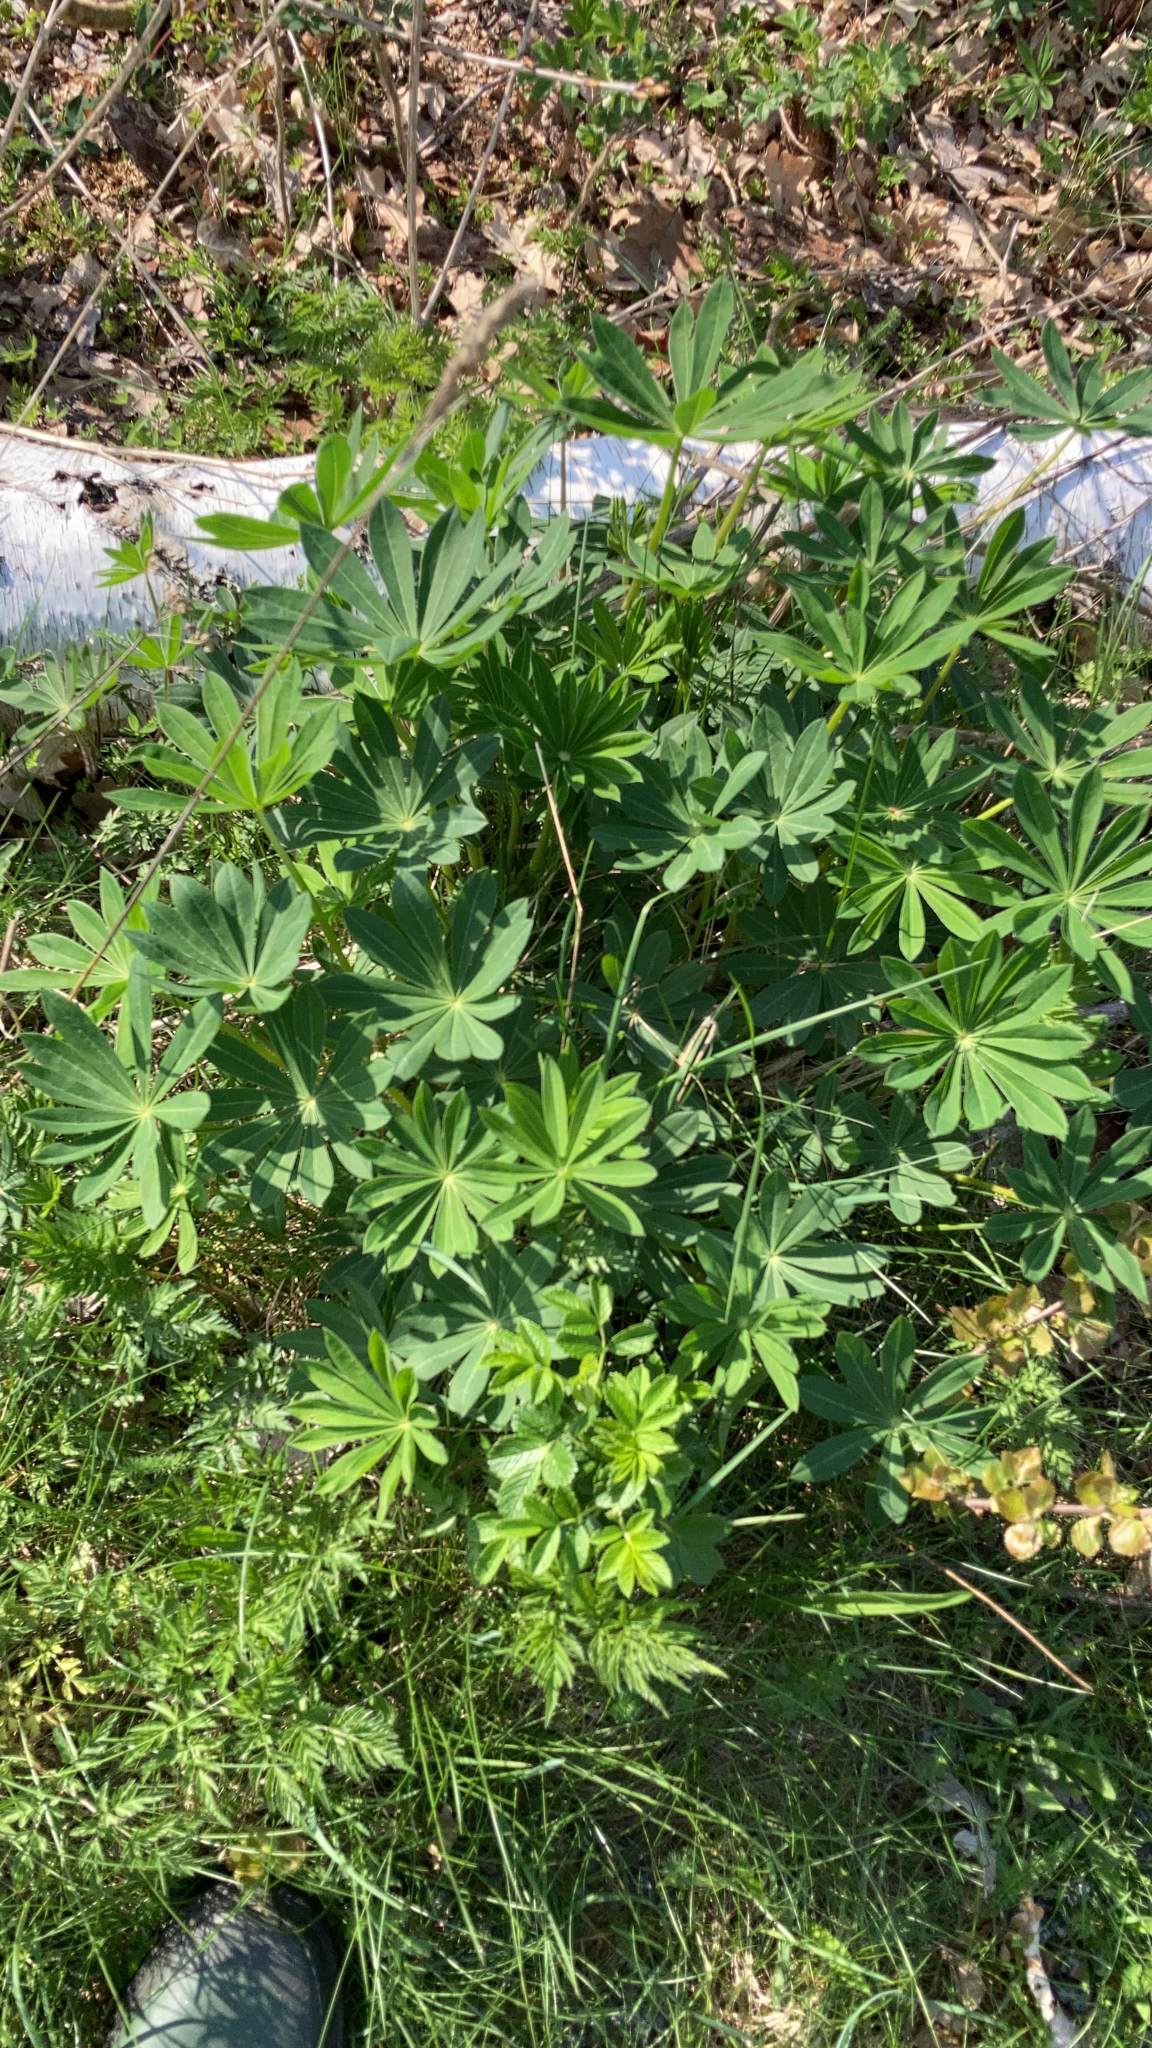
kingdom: Plantae
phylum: Tracheophyta
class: Magnoliopsida
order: Fabales
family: Fabaceae
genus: Lupinus
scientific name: Lupinus polyphyllus
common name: Garden lupin
